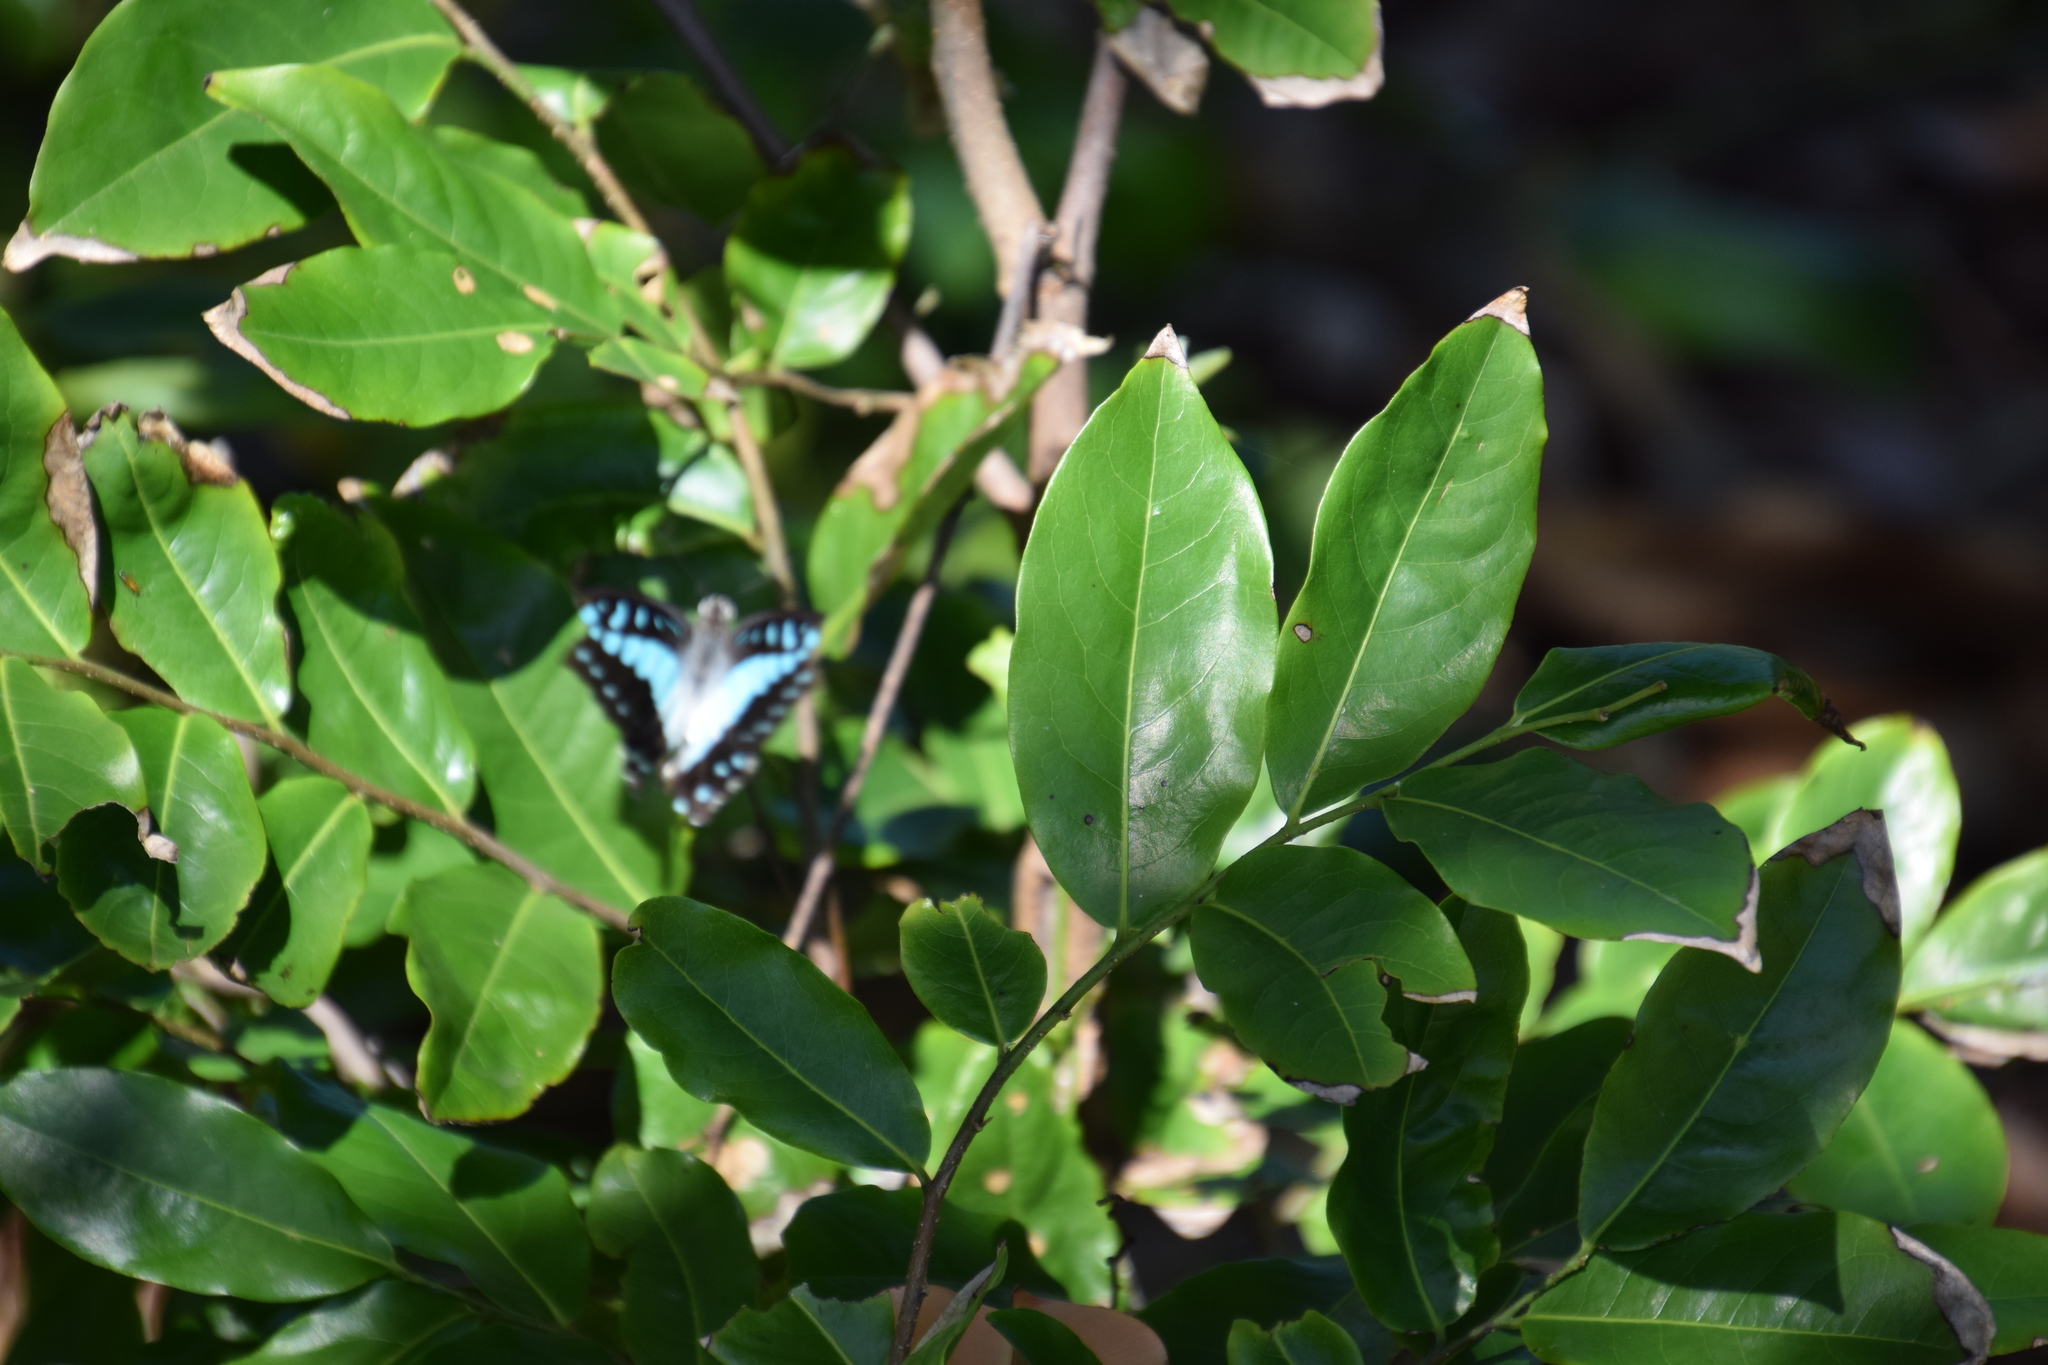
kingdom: Animalia
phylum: Arthropoda
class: Insecta
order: Lepidoptera
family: Papilionidae
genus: Graphium
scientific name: Graphium eurypylus
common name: Great jay
